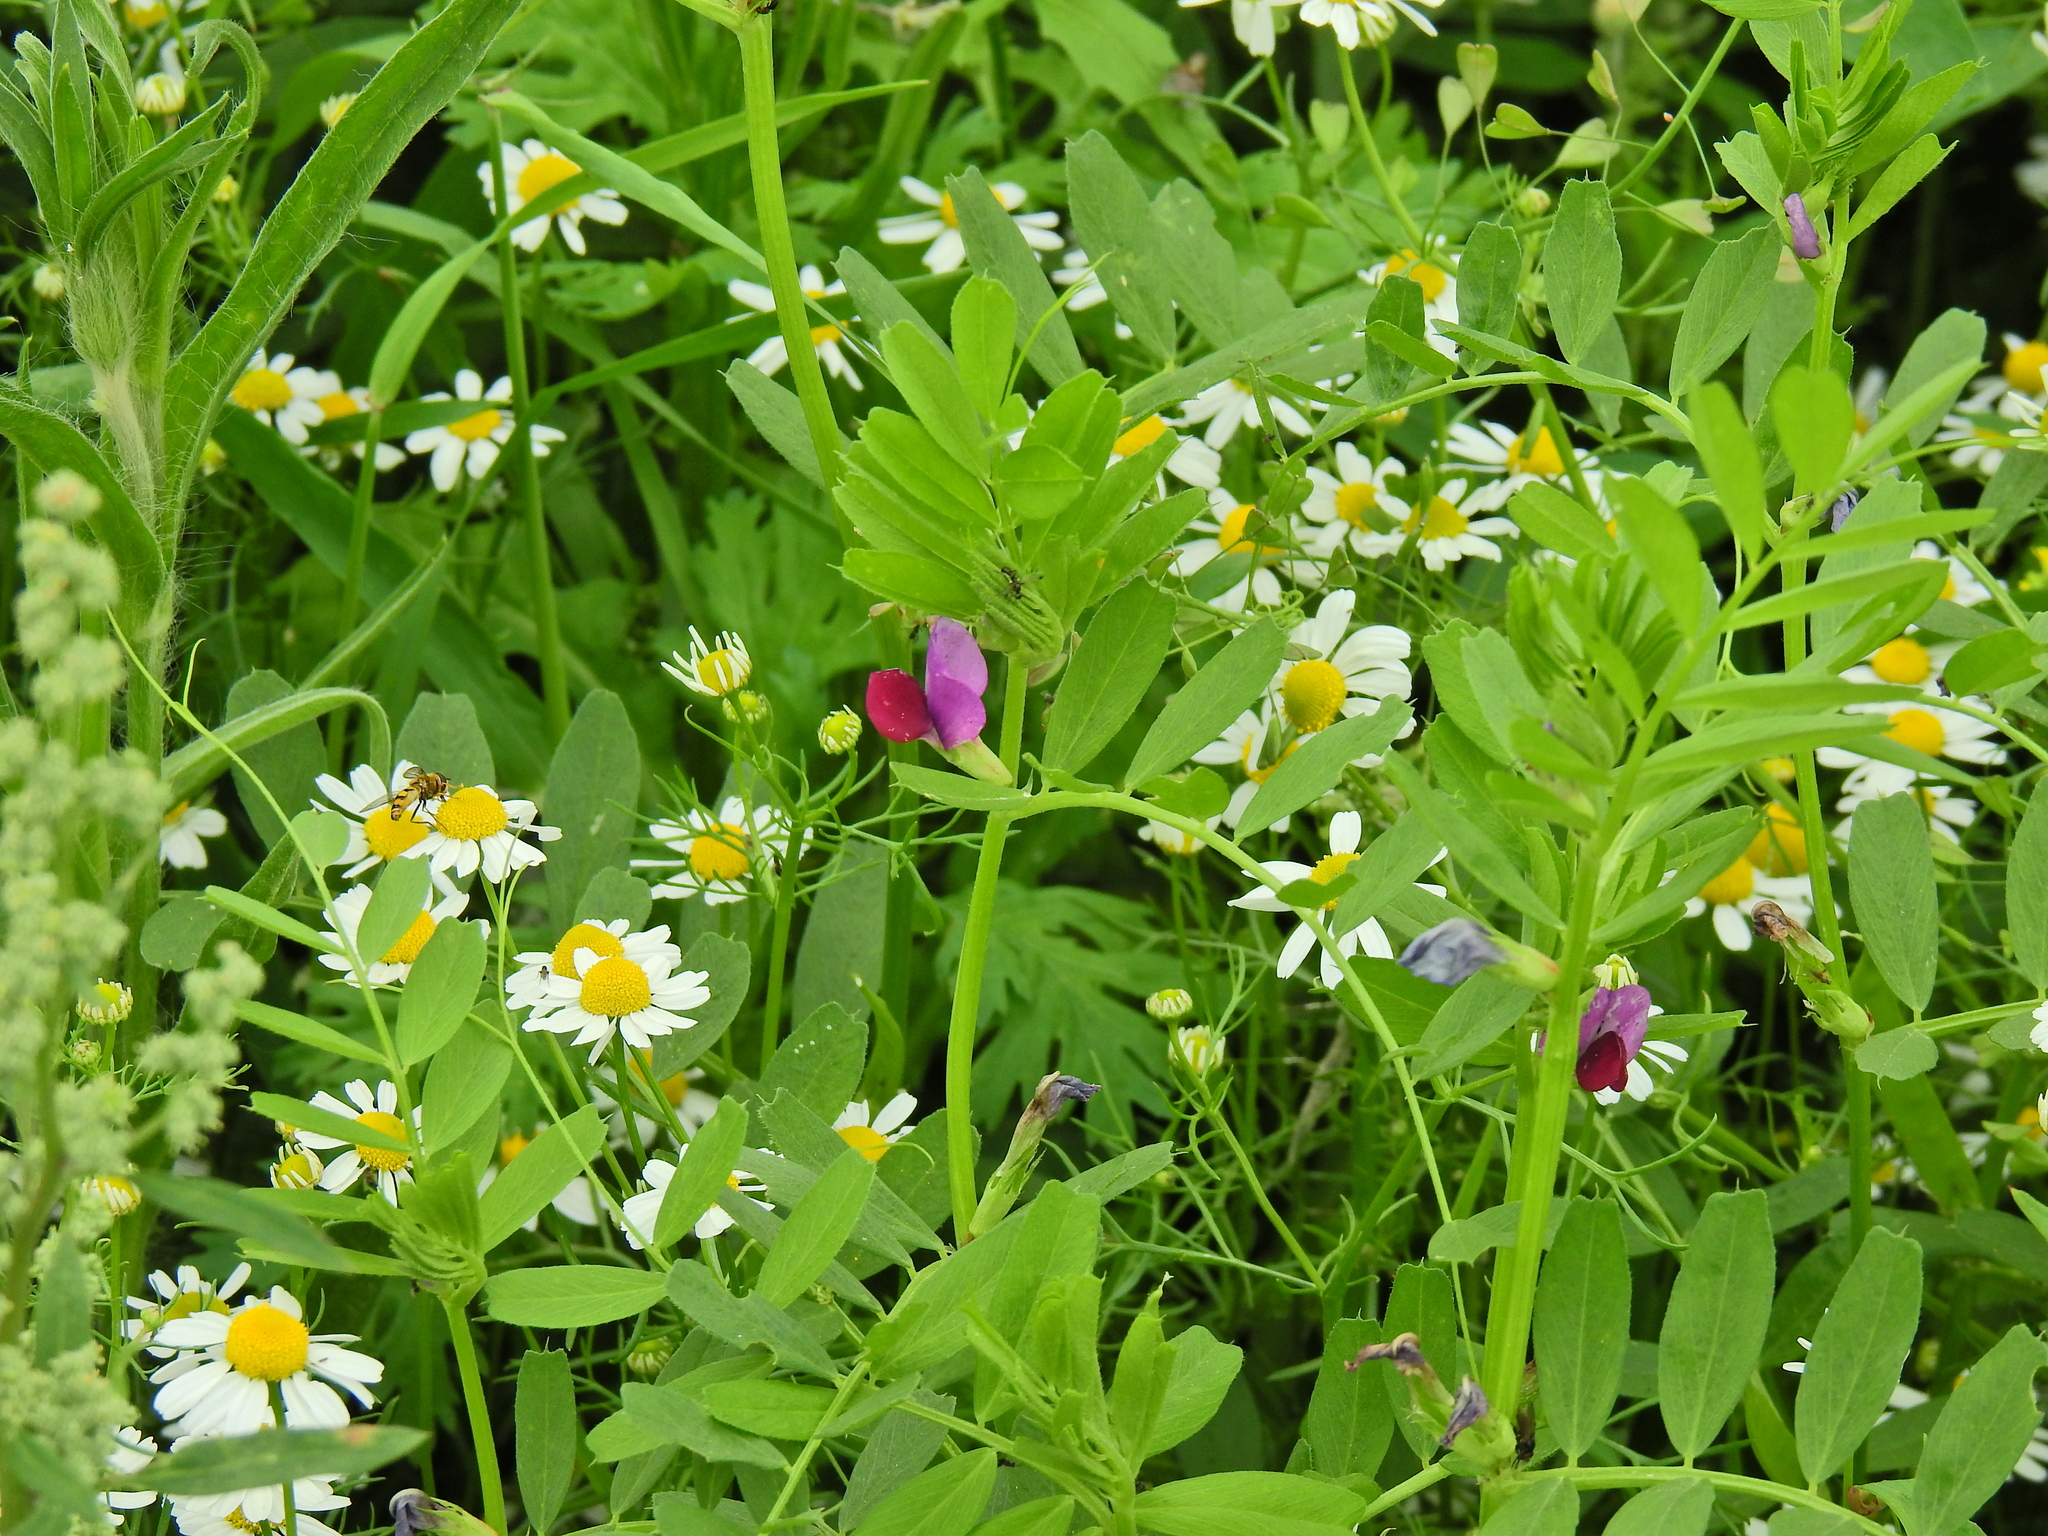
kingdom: Plantae
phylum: Tracheophyta
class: Magnoliopsida
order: Fabales
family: Fabaceae
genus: Vicia
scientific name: Vicia sativa
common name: Garden vetch
